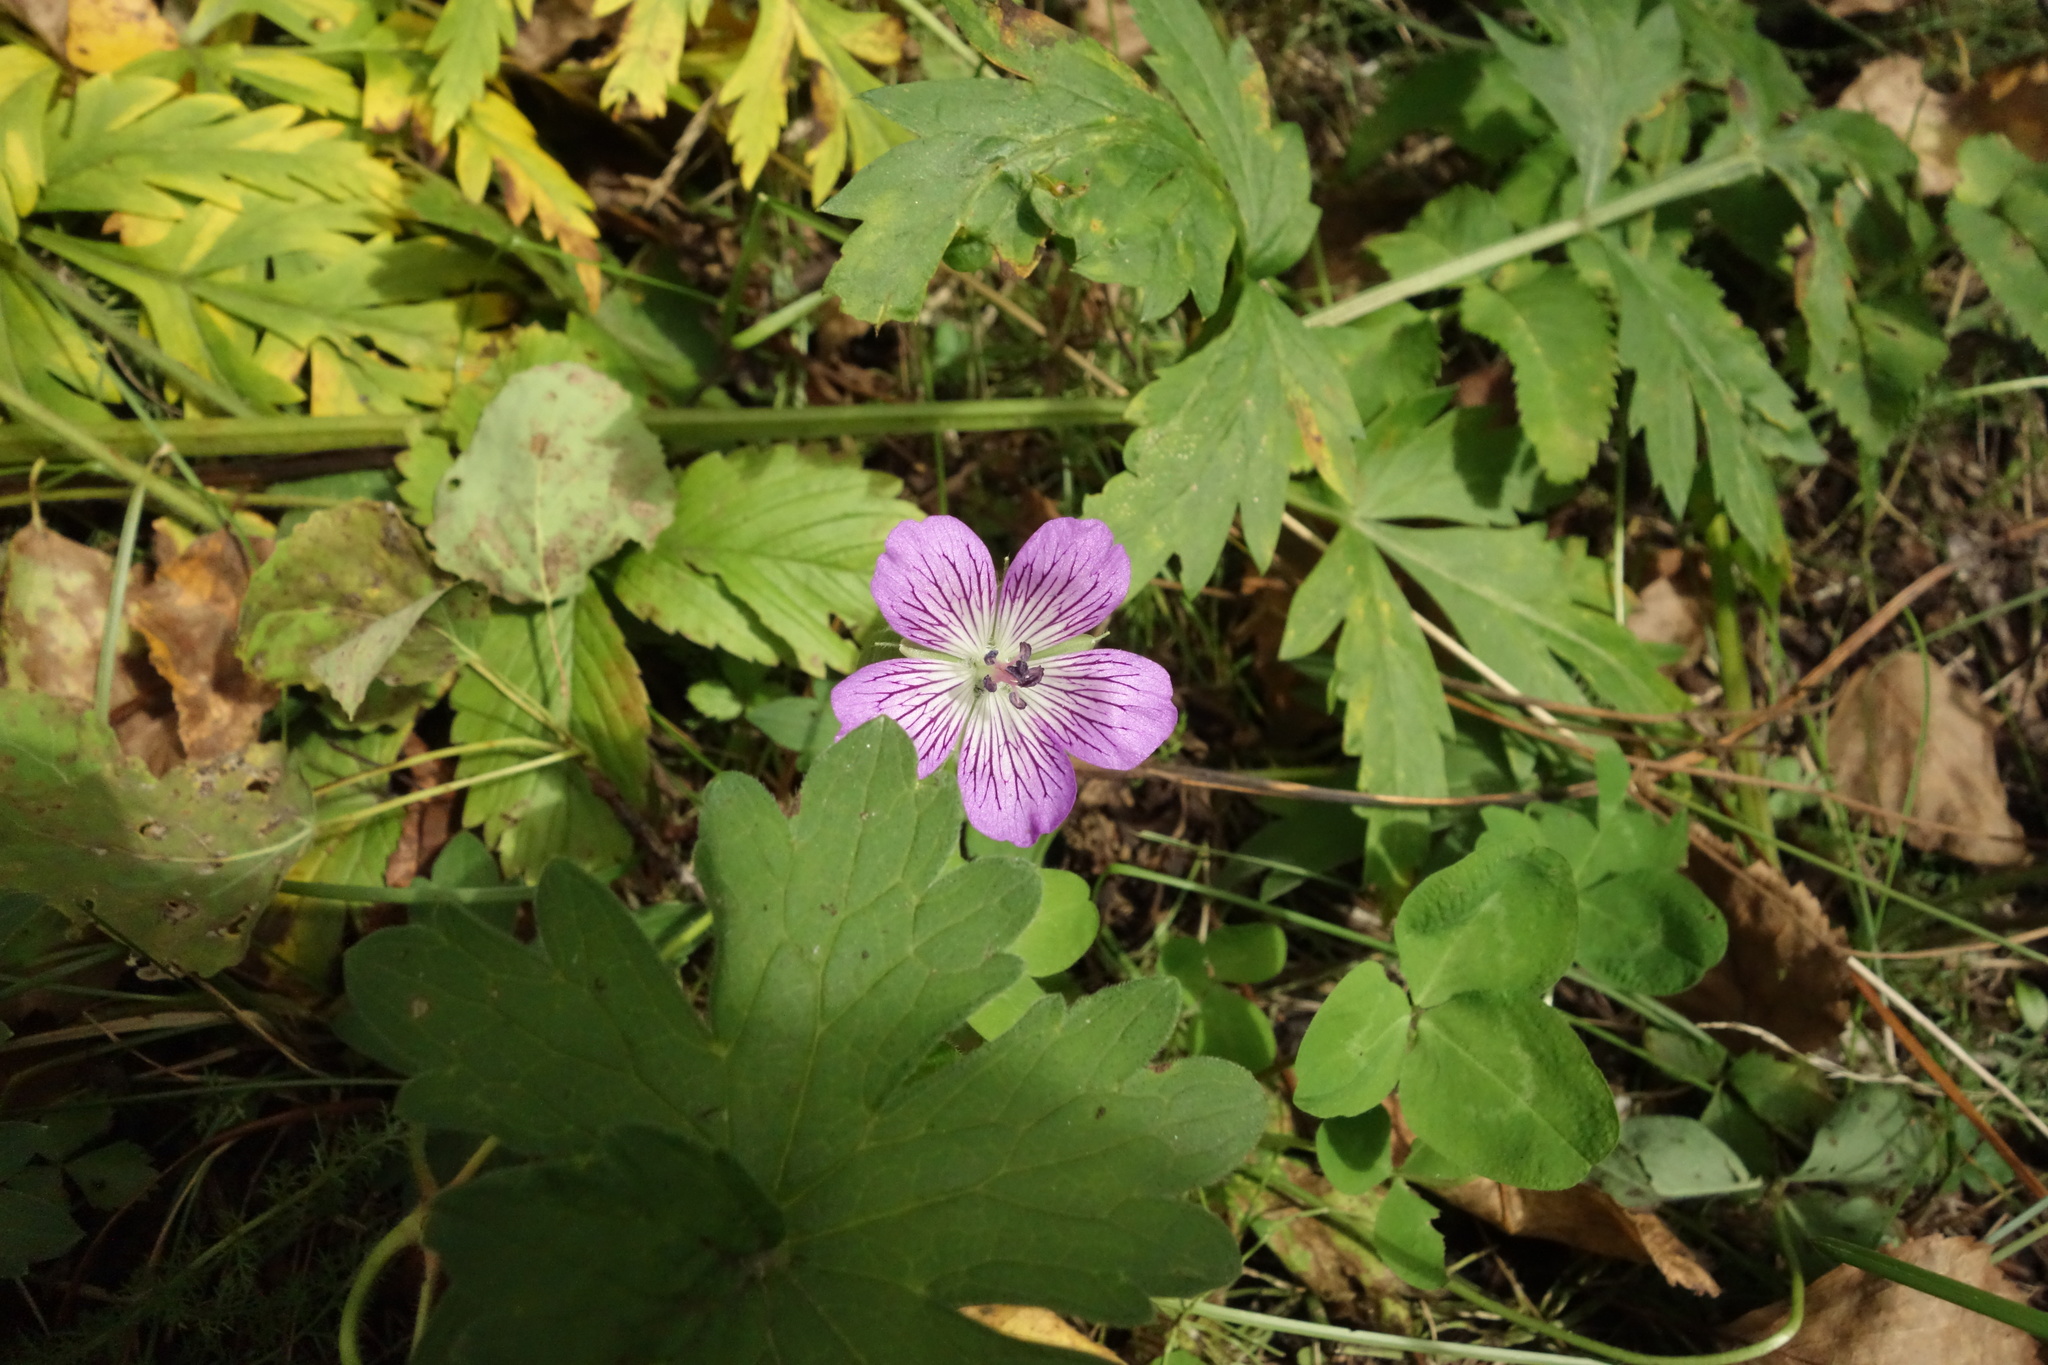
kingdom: Plantae
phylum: Tracheophyta
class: Magnoliopsida
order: Geraniales
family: Geraniaceae
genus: Geranium
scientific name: Geranium wlassovianum
